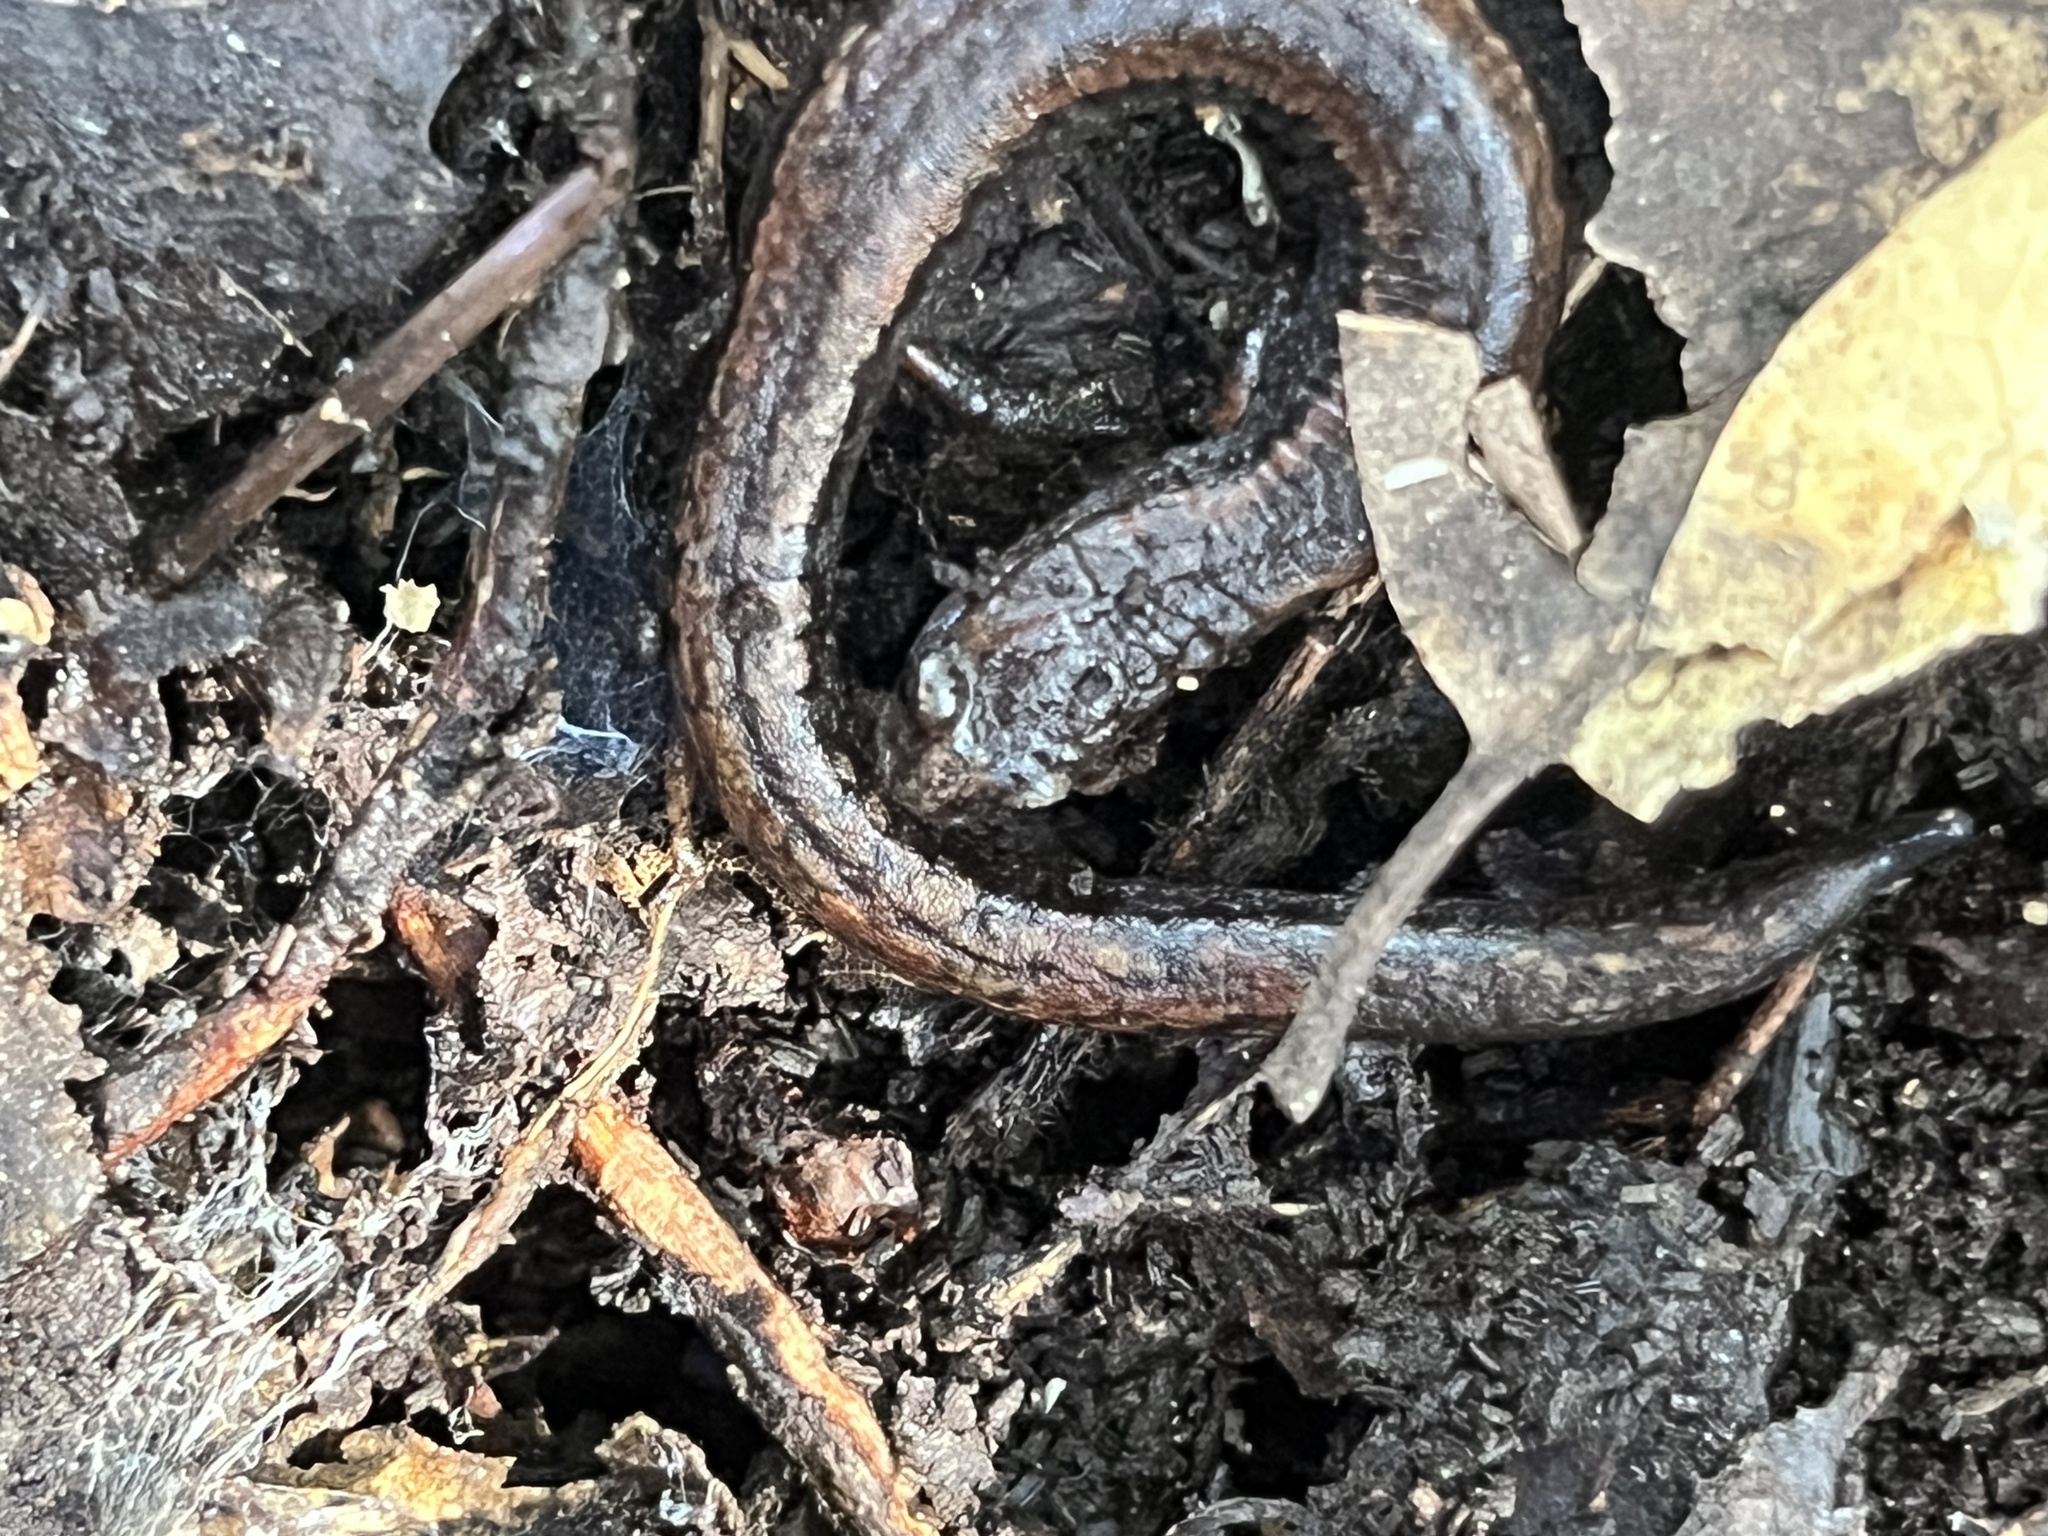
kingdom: Animalia
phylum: Chordata
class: Amphibia
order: Caudata
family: Plethodontidae
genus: Batrachoseps
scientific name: Batrachoseps attenuatus
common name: California slender salamander
